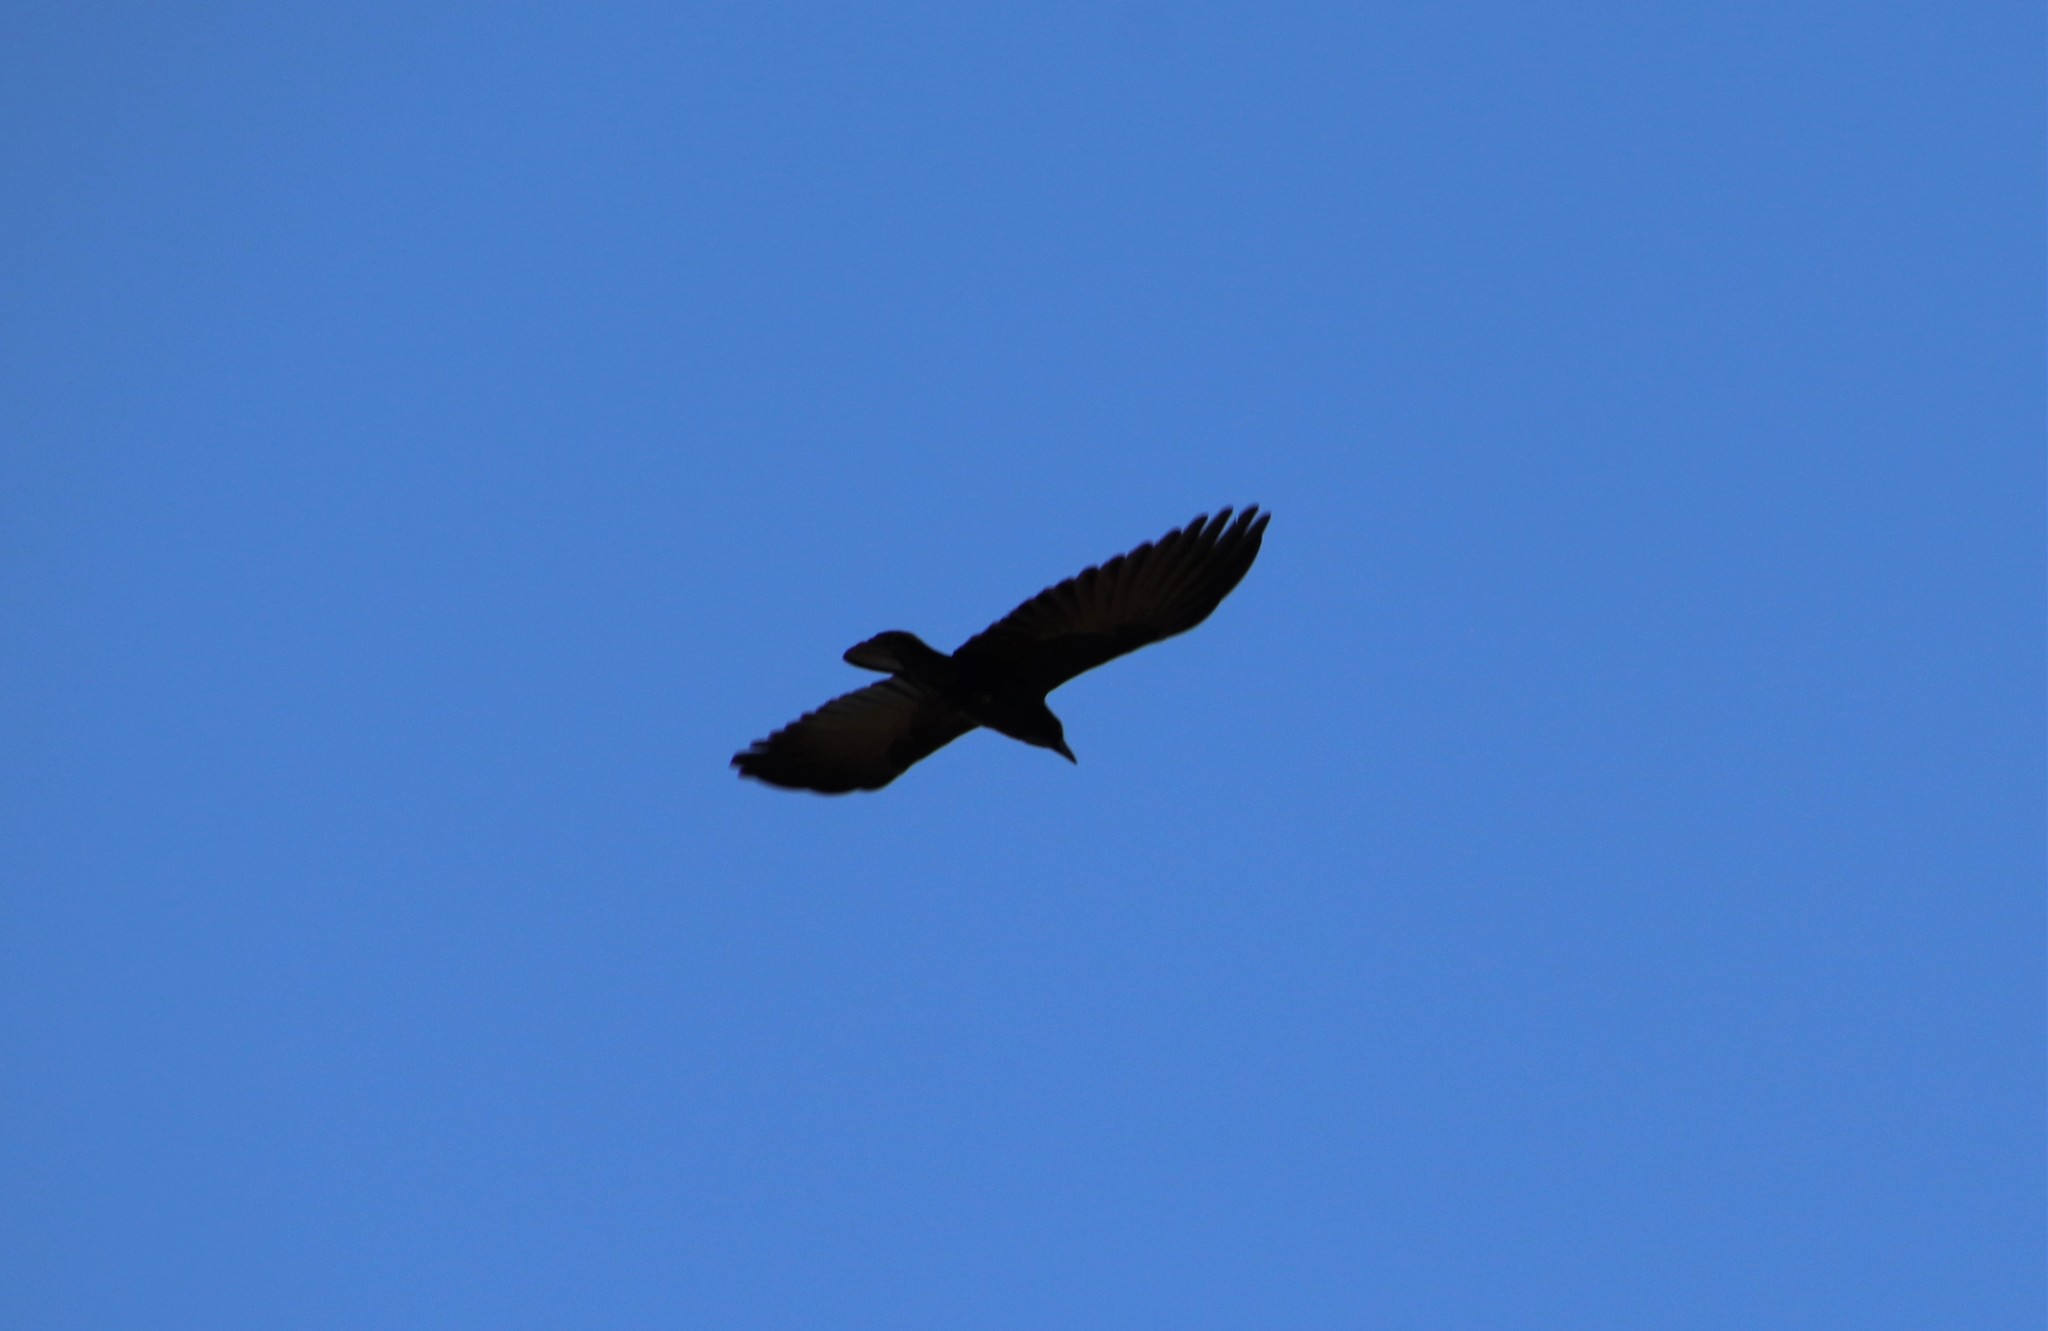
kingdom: Animalia
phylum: Chordata
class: Aves
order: Passeriformes
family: Corvidae
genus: Corvus
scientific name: Corvus brachyrhynchos
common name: American crow
